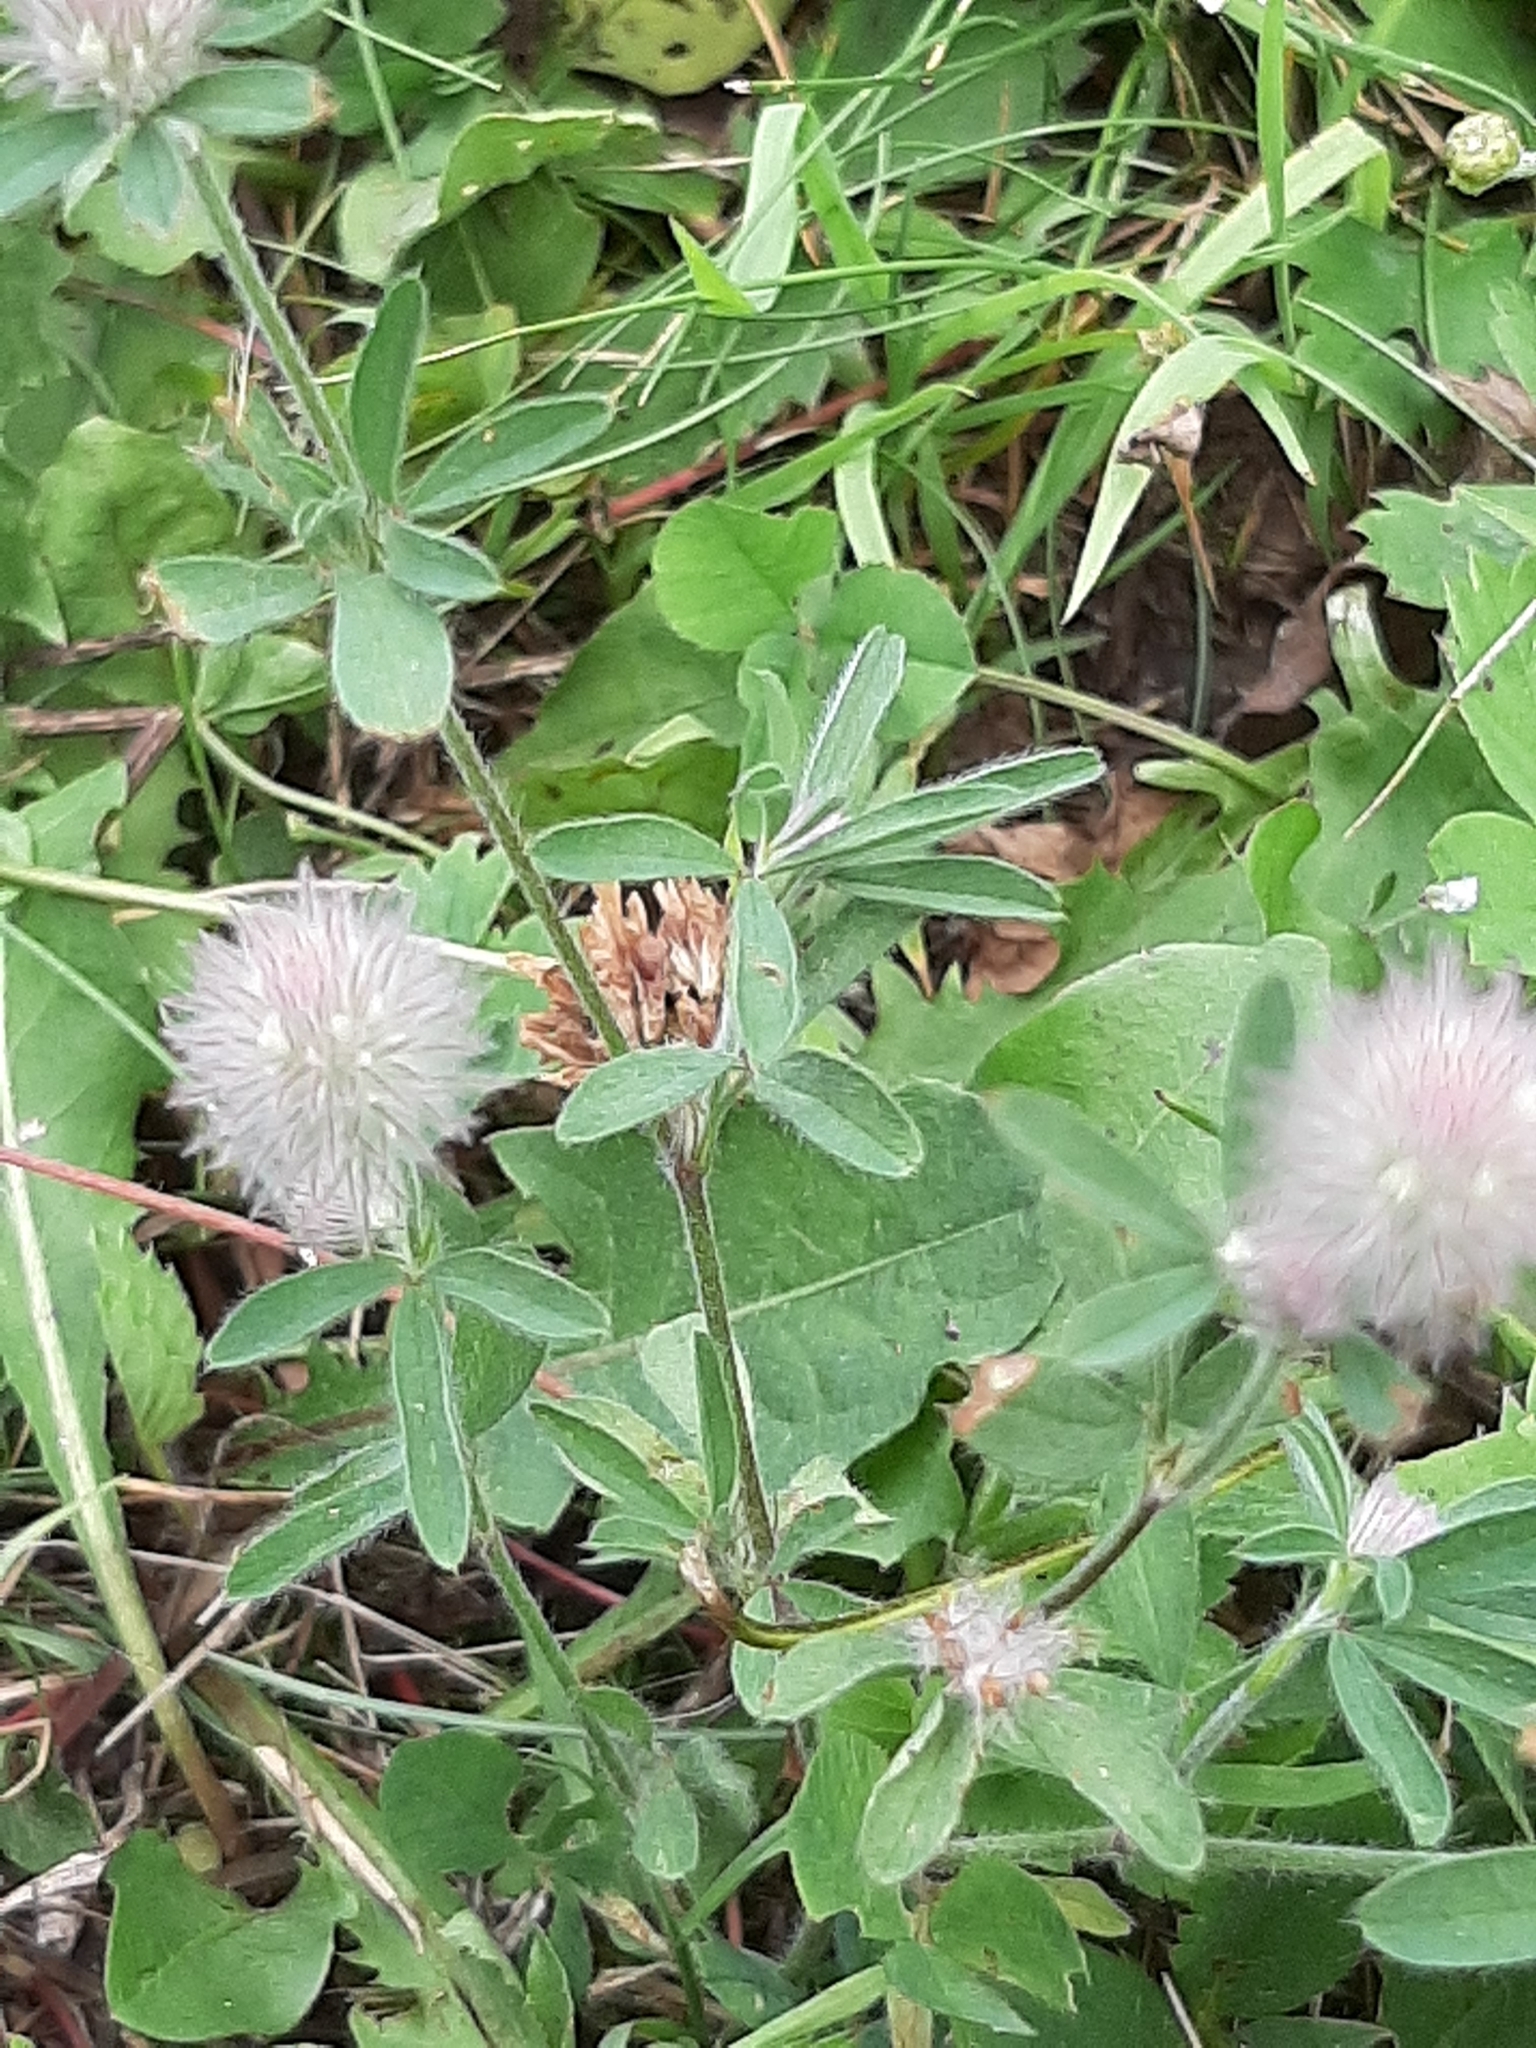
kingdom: Plantae
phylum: Tracheophyta
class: Magnoliopsida
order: Fabales
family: Fabaceae
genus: Trifolium
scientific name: Trifolium arvense
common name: Hare's-foot clover
